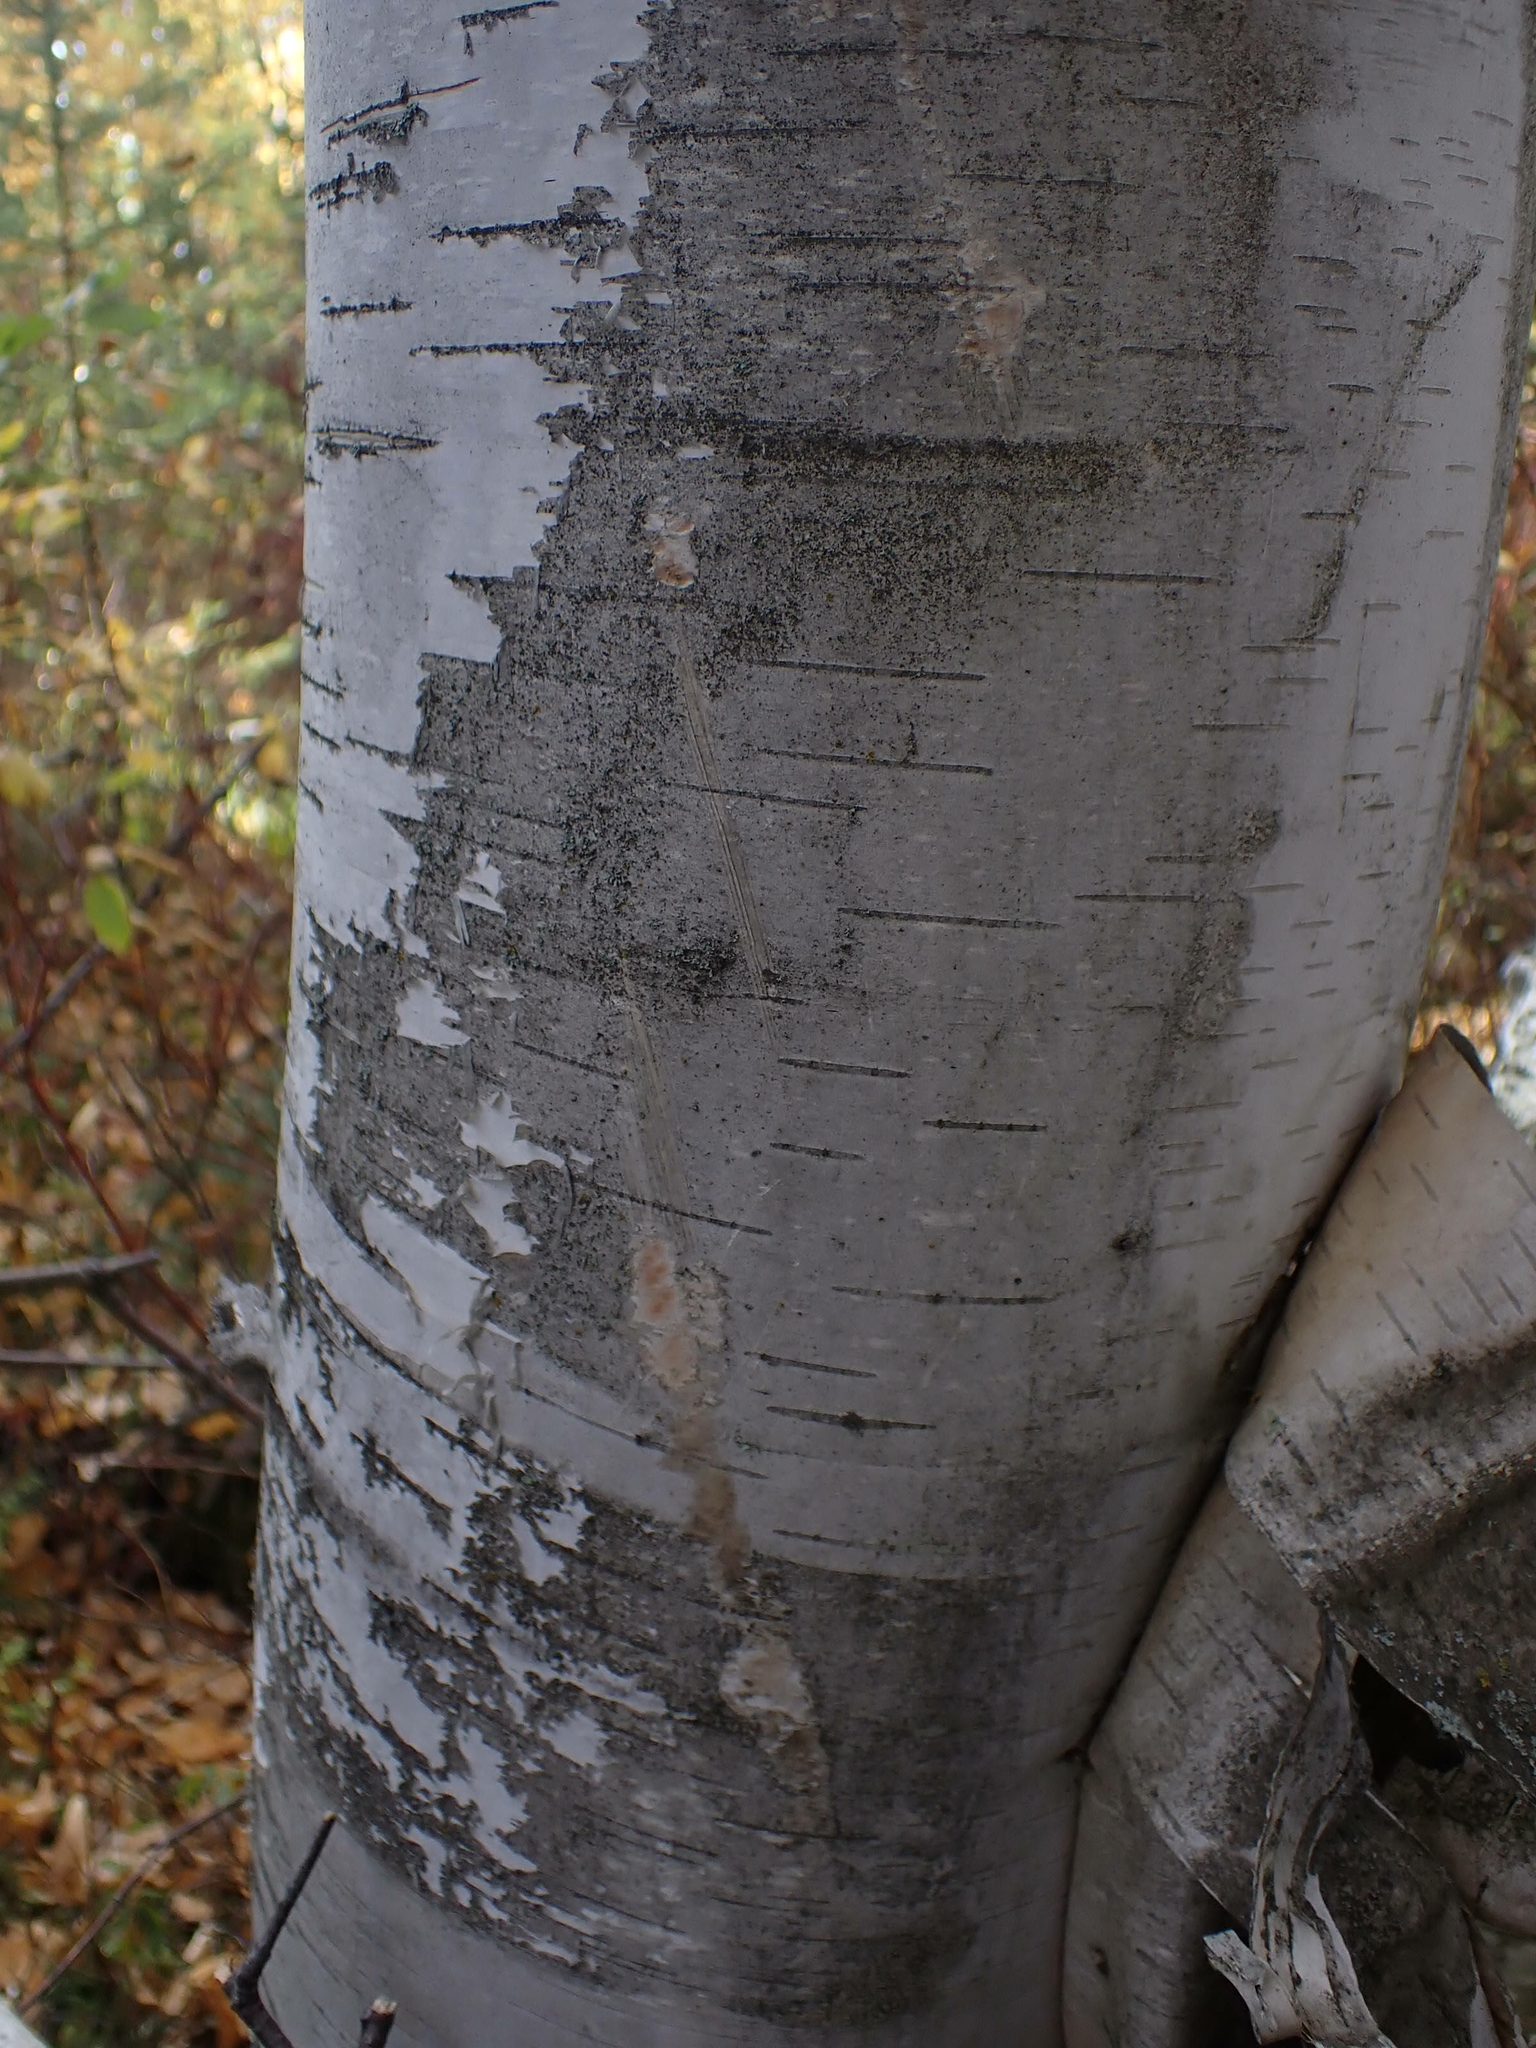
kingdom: Plantae
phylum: Tracheophyta
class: Magnoliopsida
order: Fagales
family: Betulaceae
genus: Betula
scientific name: Betula papyrifera
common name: Paper birch
